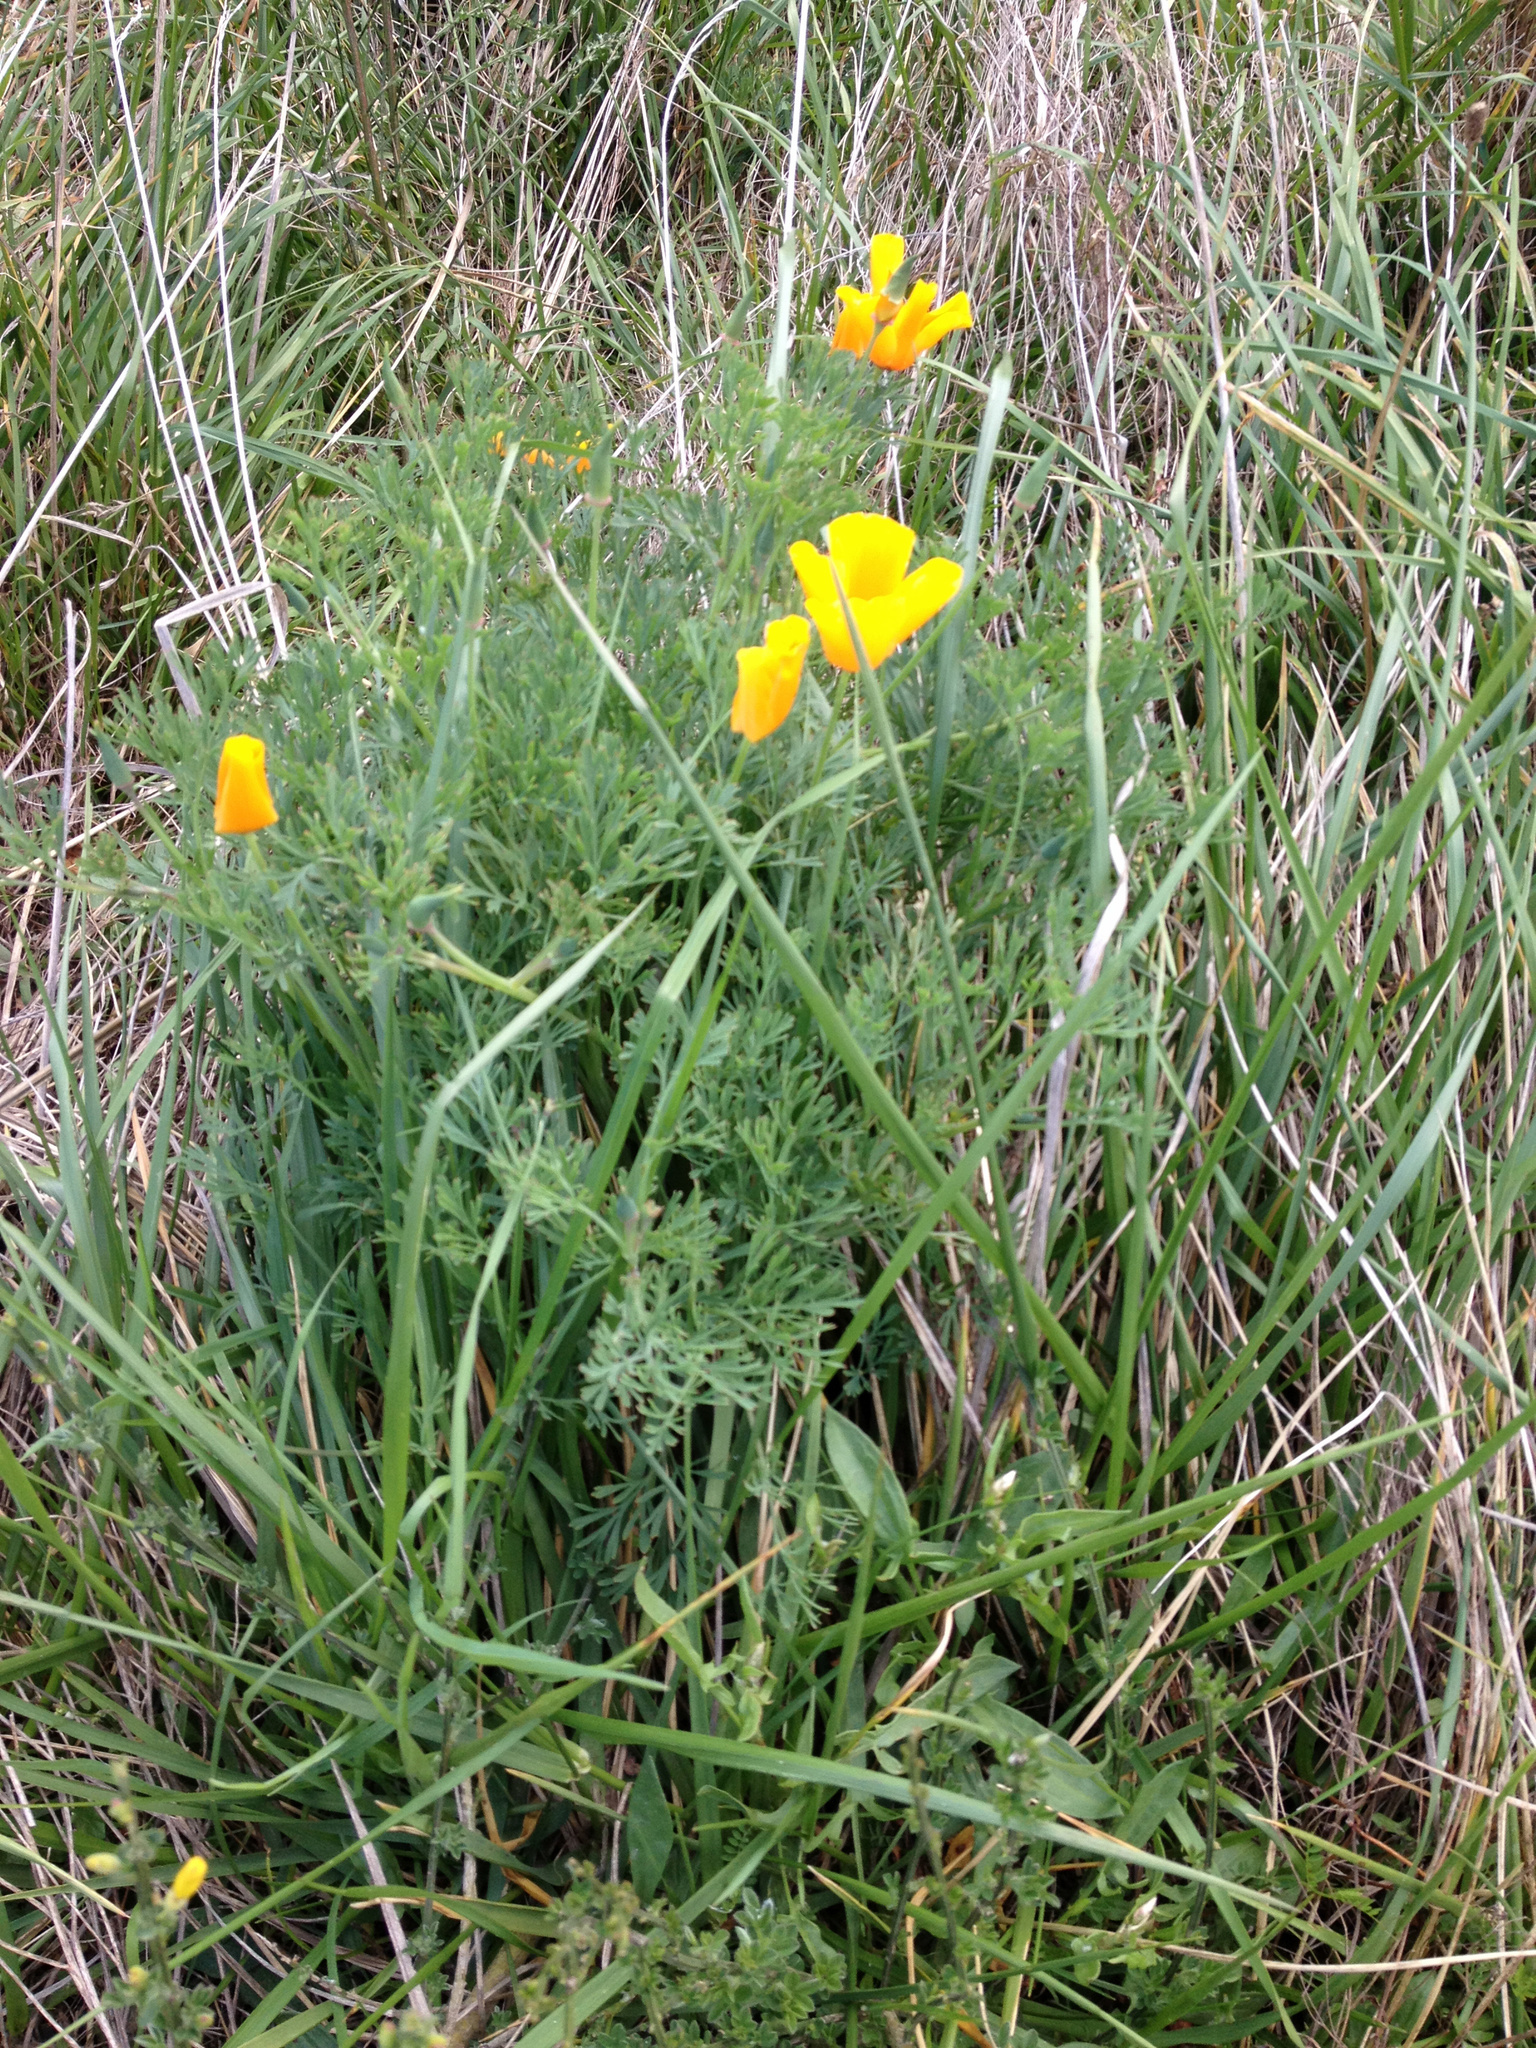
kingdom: Plantae
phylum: Tracheophyta
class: Magnoliopsida
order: Ranunculales
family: Papaveraceae
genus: Eschscholzia
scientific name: Eschscholzia californica
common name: California poppy
